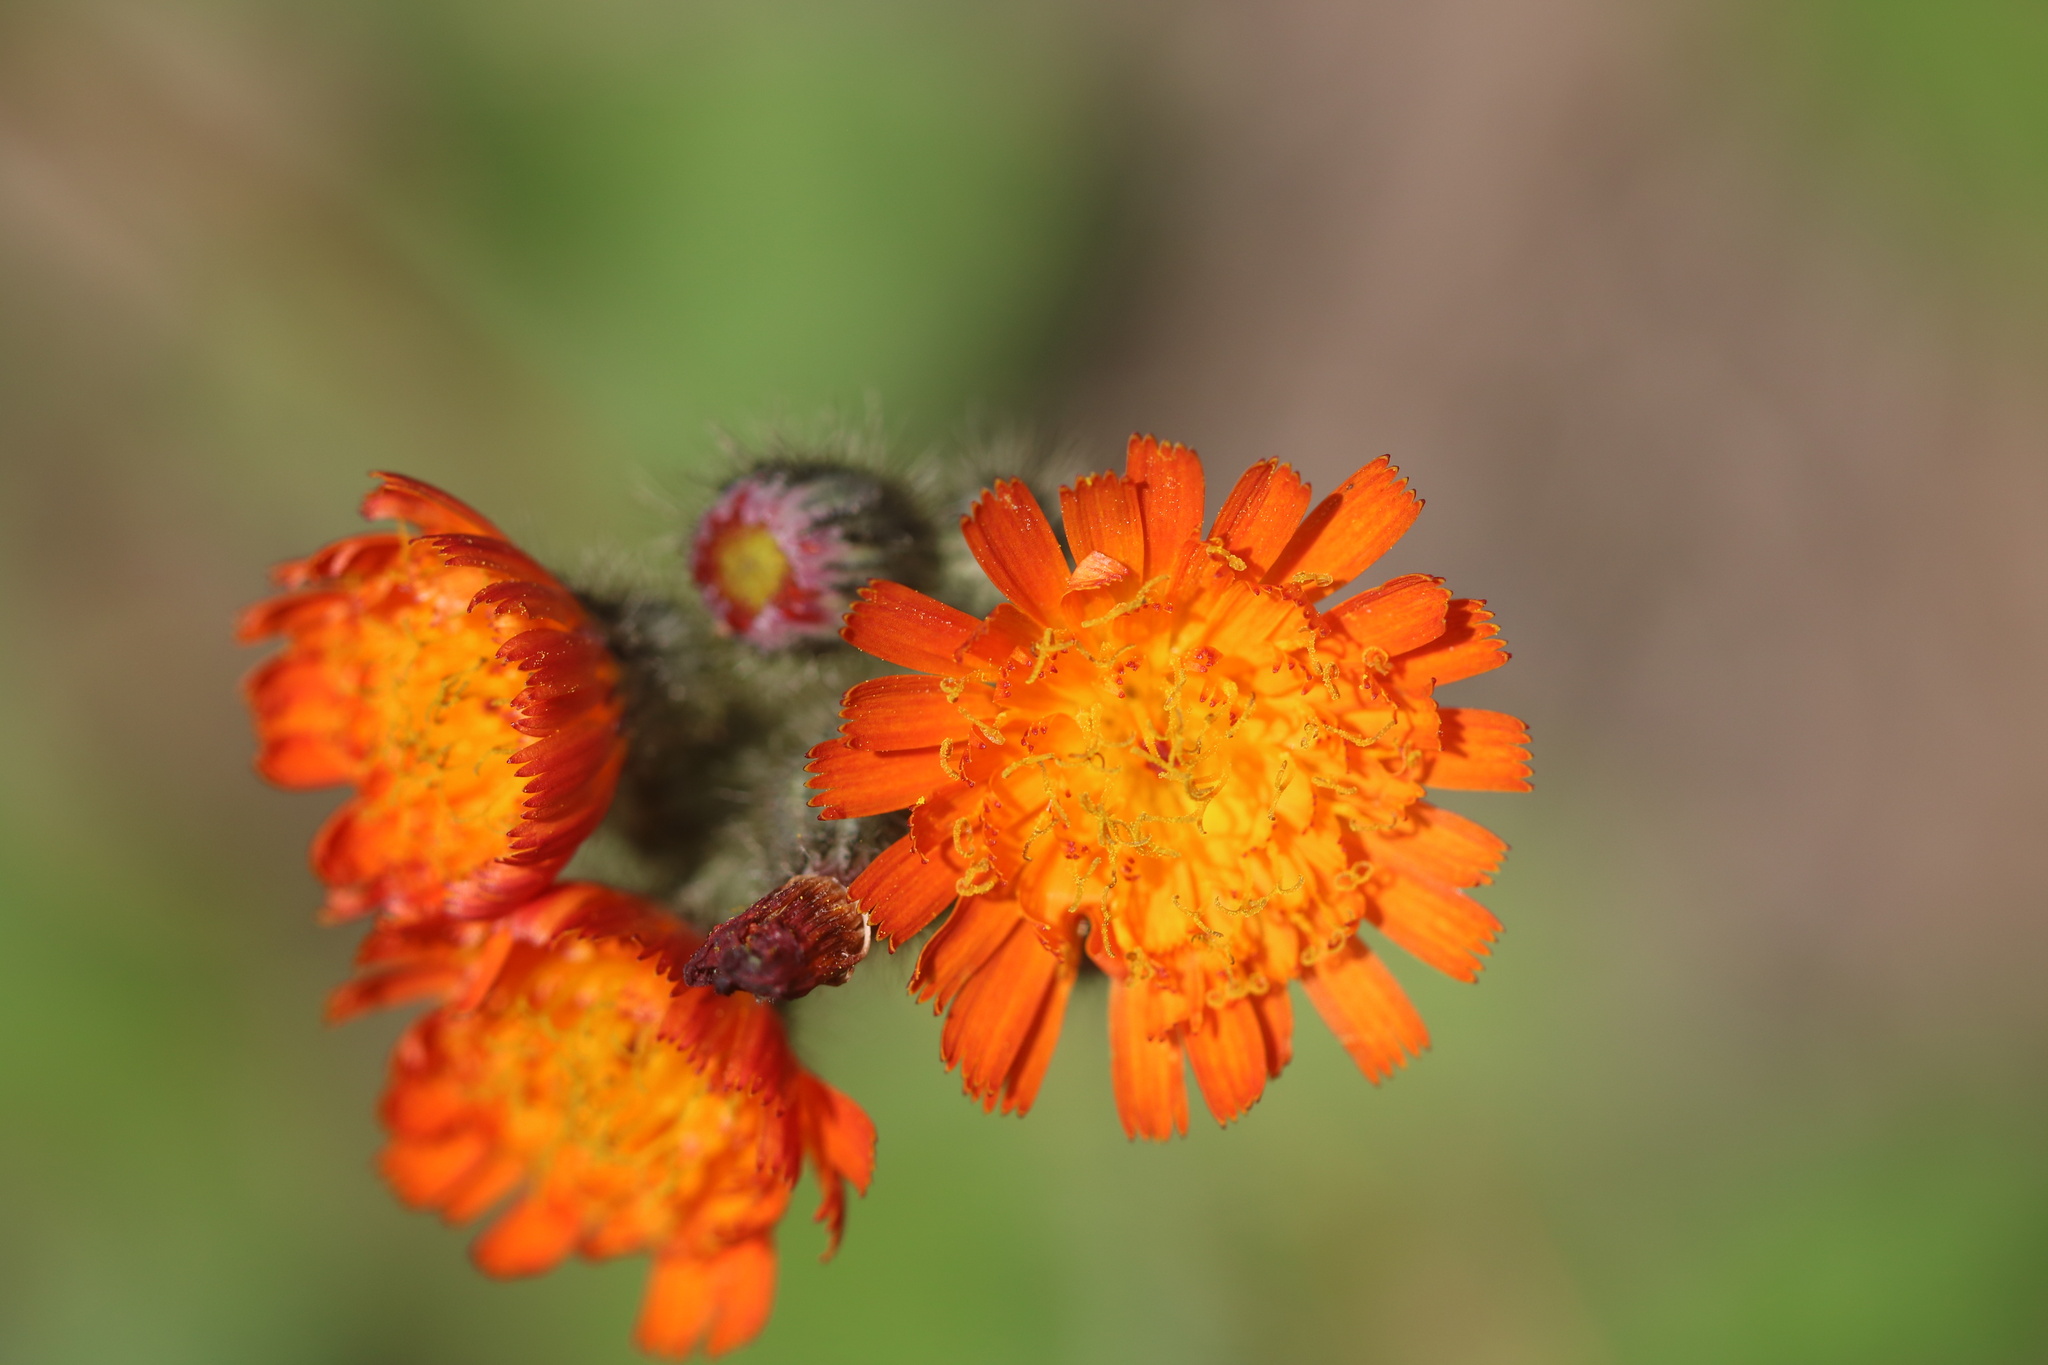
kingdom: Plantae
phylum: Tracheophyta
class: Magnoliopsida
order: Asterales
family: Asteraceae
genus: Pilosella
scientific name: Pilosella aurantiaca
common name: Fox-and-cubs
